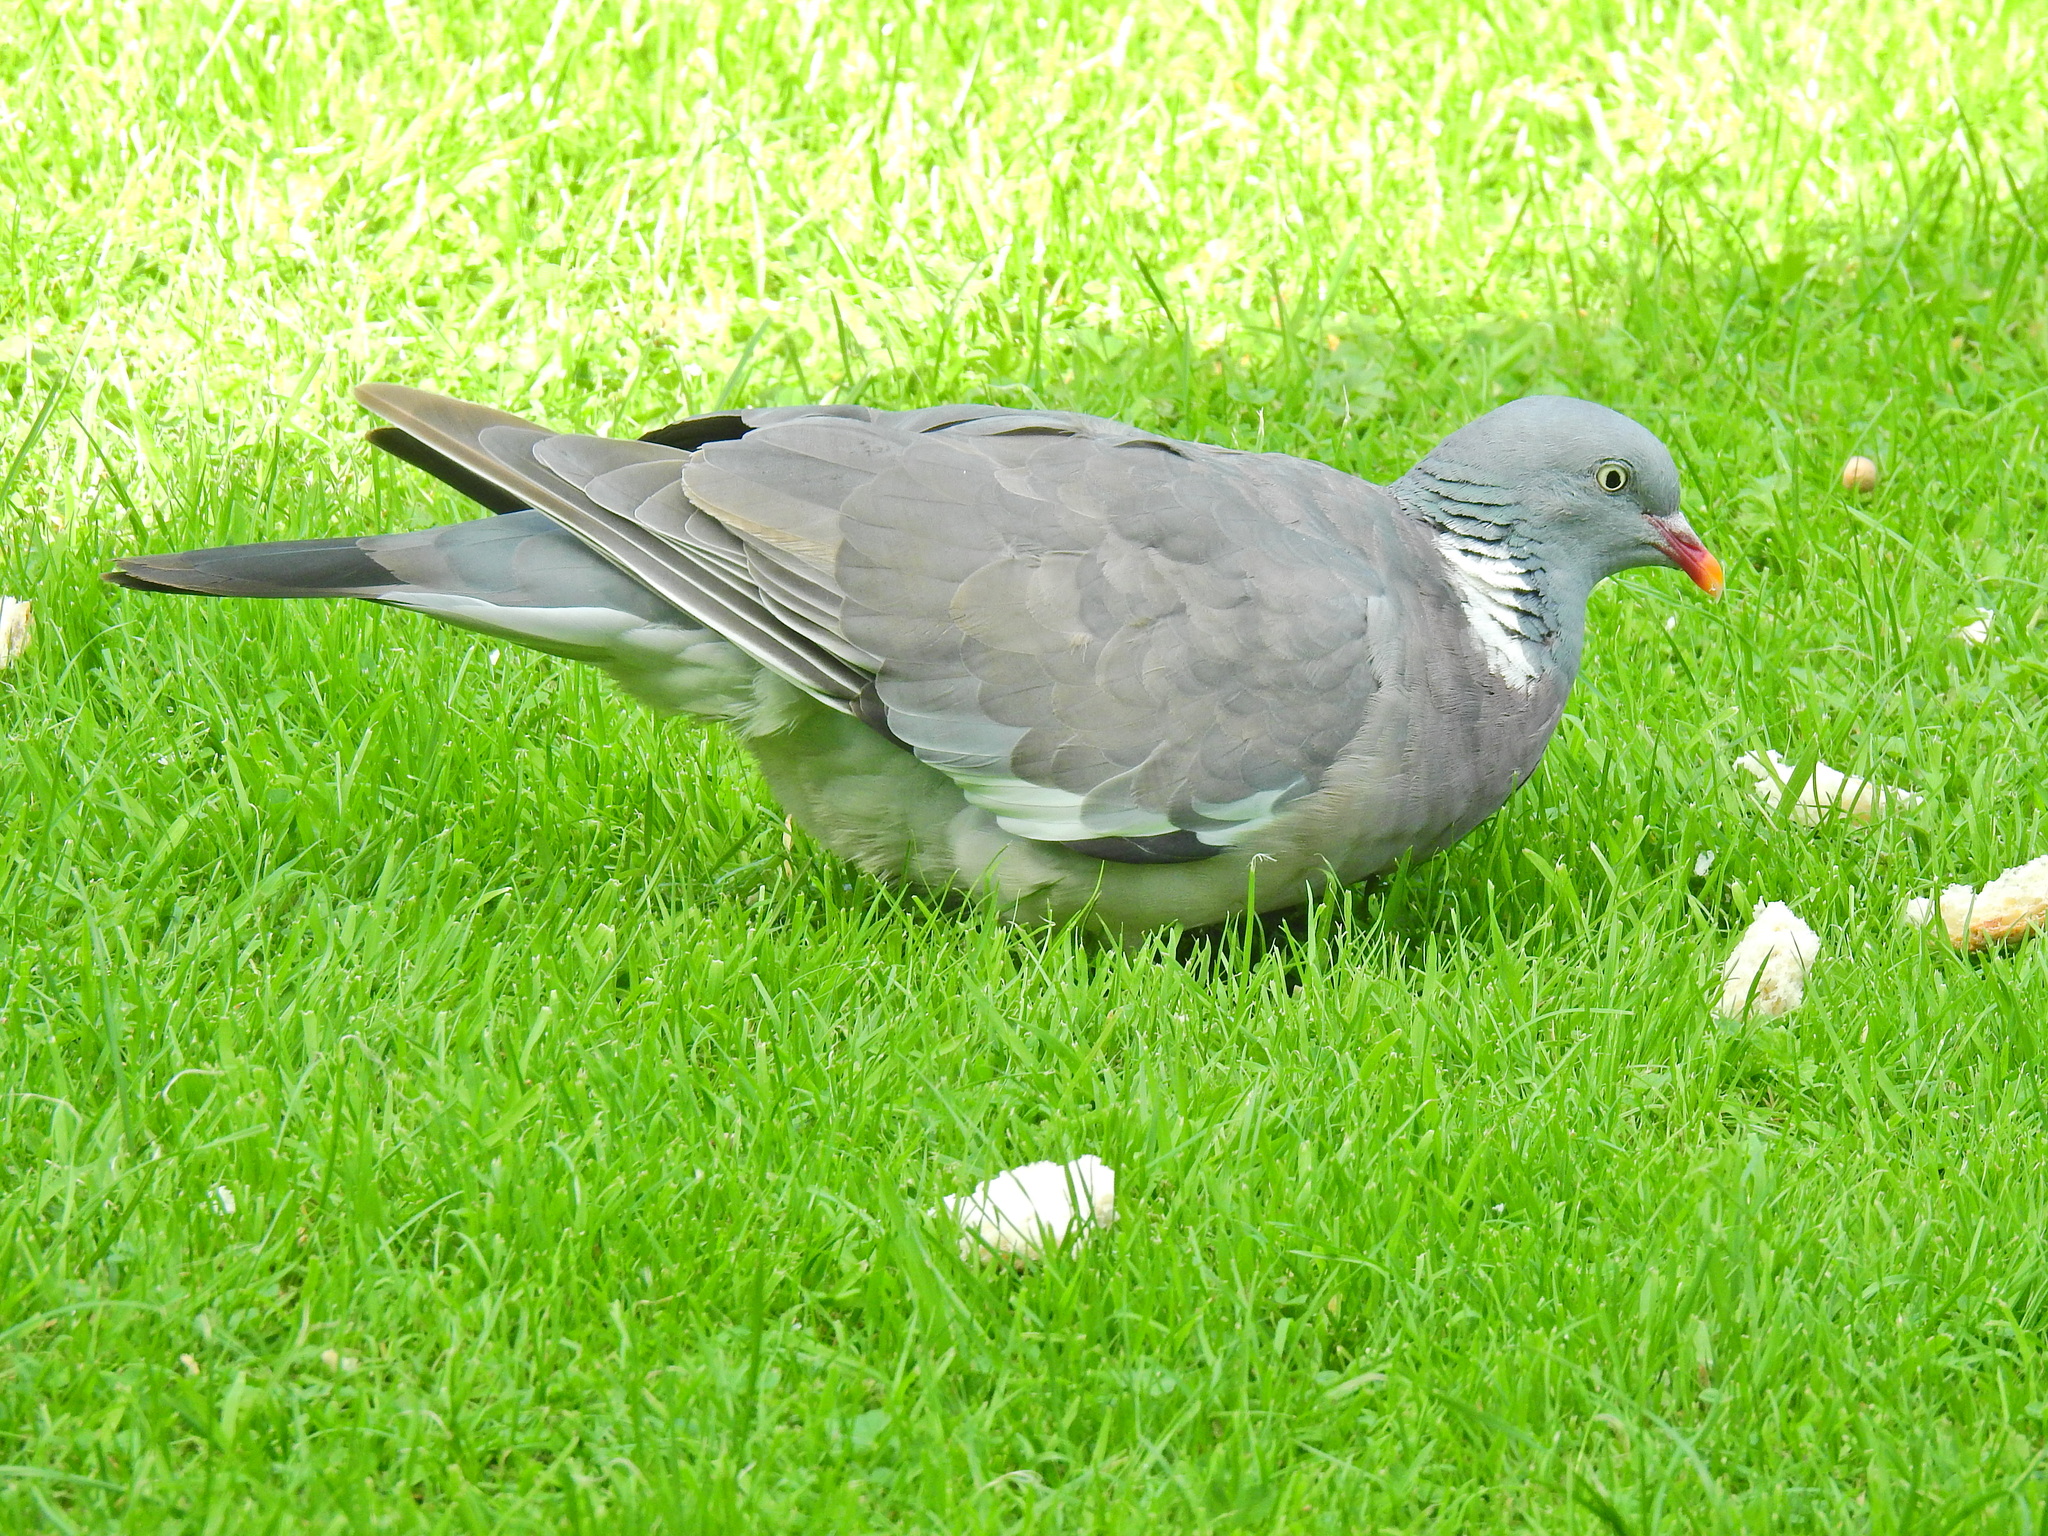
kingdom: Animalia
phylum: Chordata
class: Aves
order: Columbiformes
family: Columbidae
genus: Columba
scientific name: Columba palumbus
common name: Common wood pigeon
